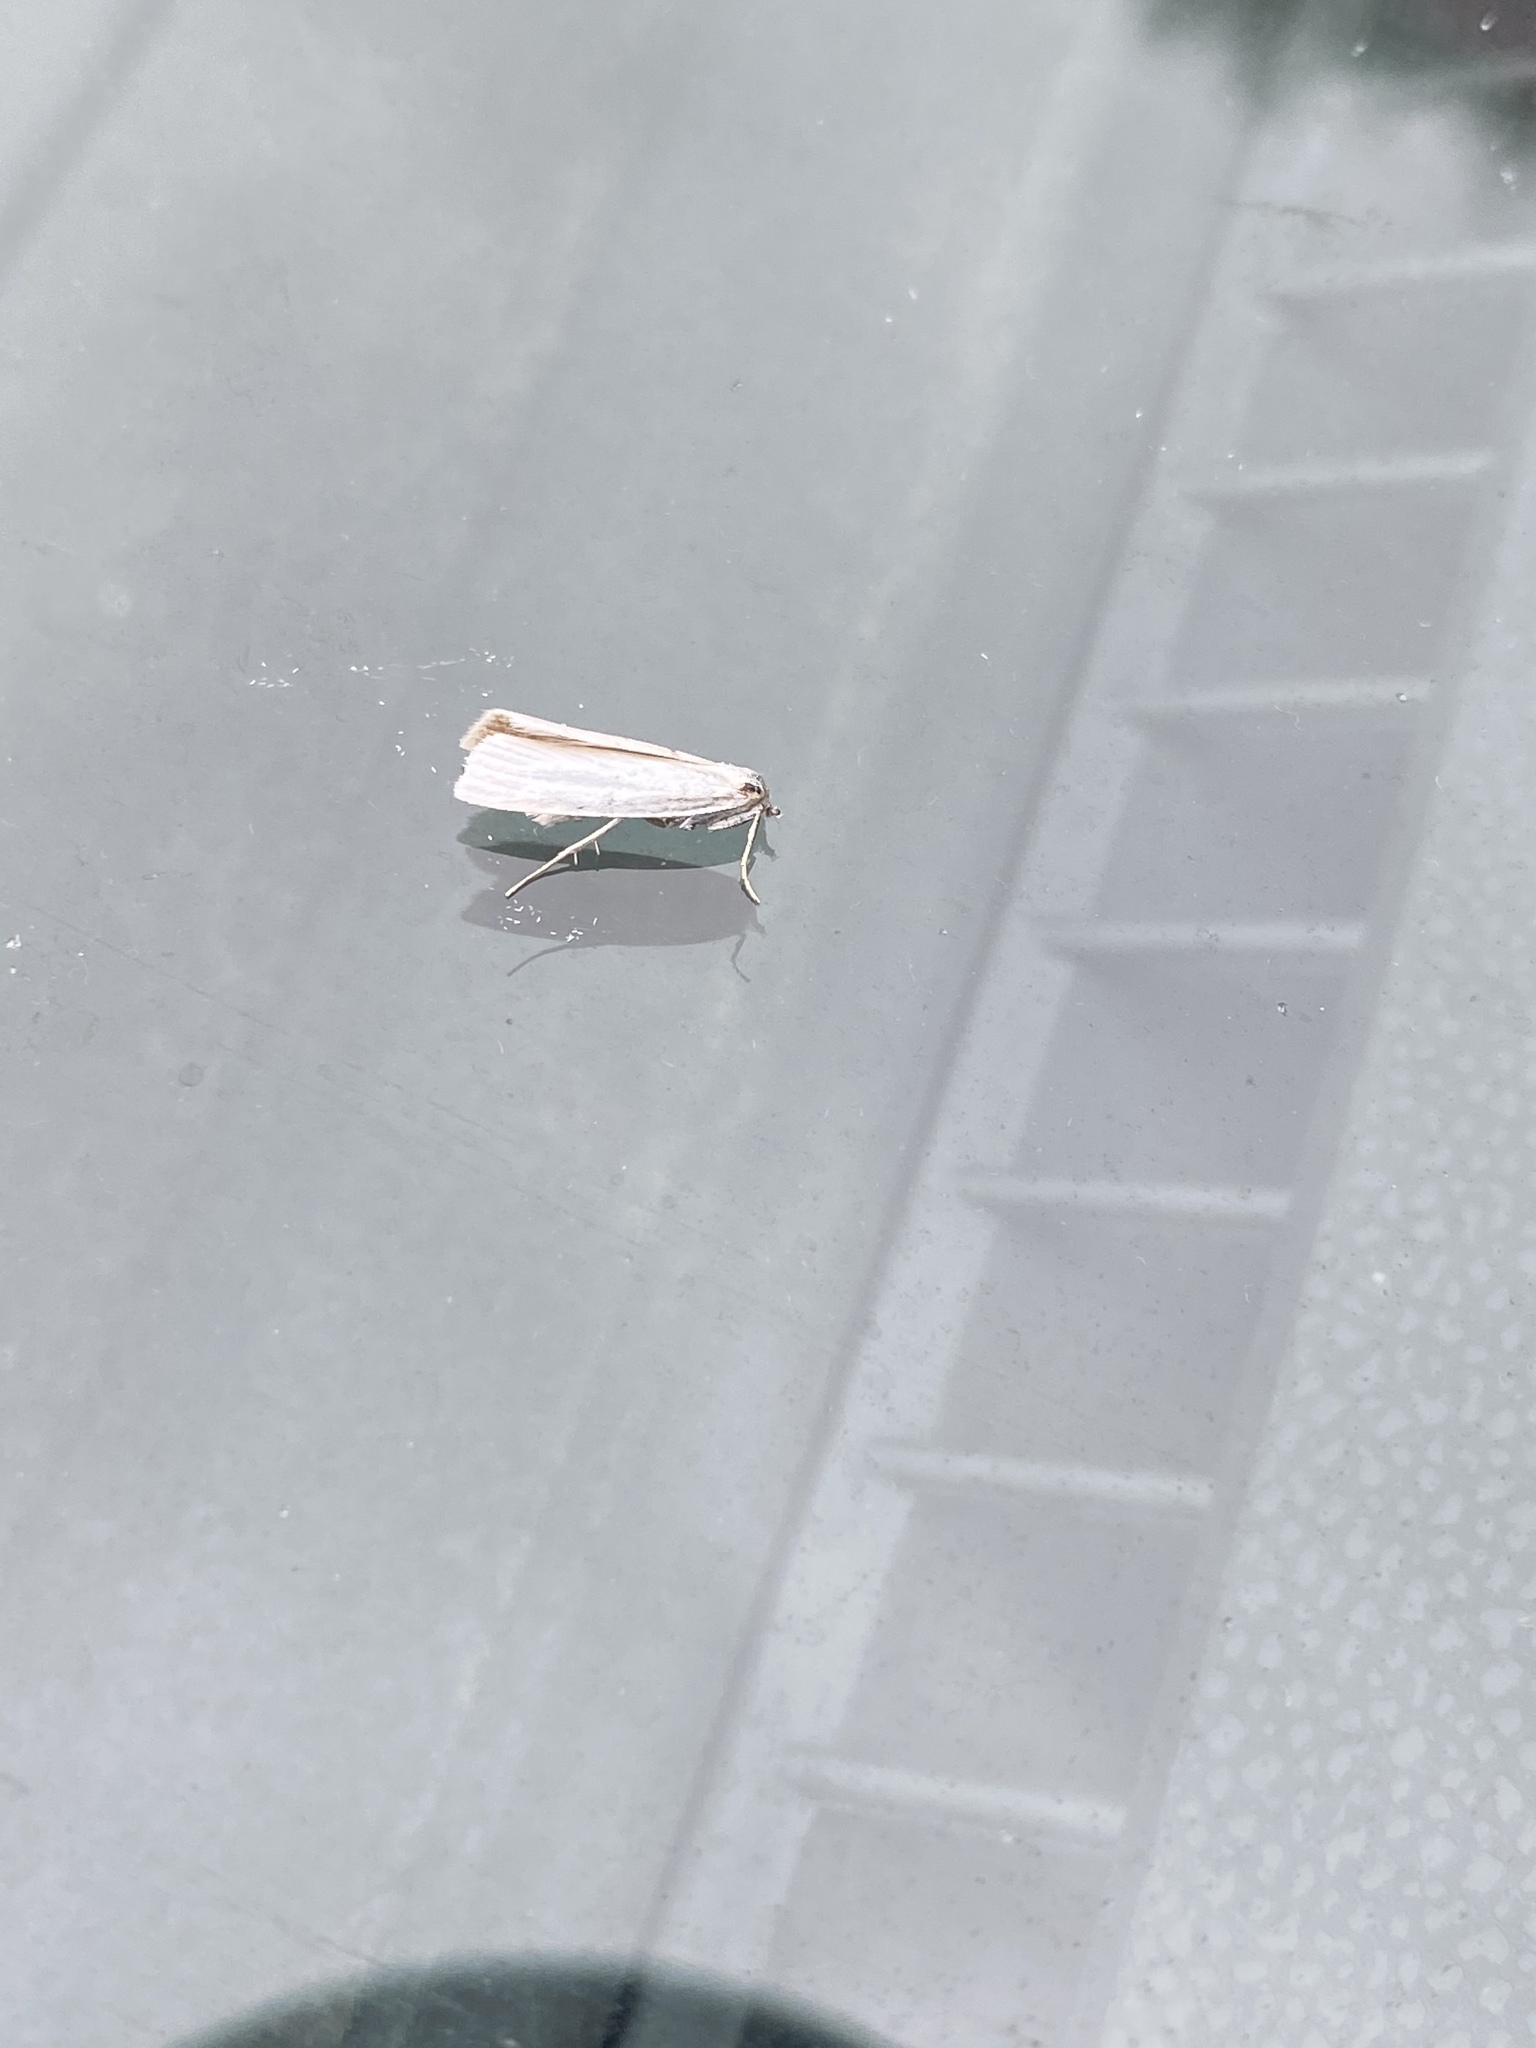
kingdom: Animalia
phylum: Arthropoda
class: Insecta
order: Lepidoptera
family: Crambidae
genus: Crambus
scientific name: Crambus perlellus
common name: Yellow satin veneer
